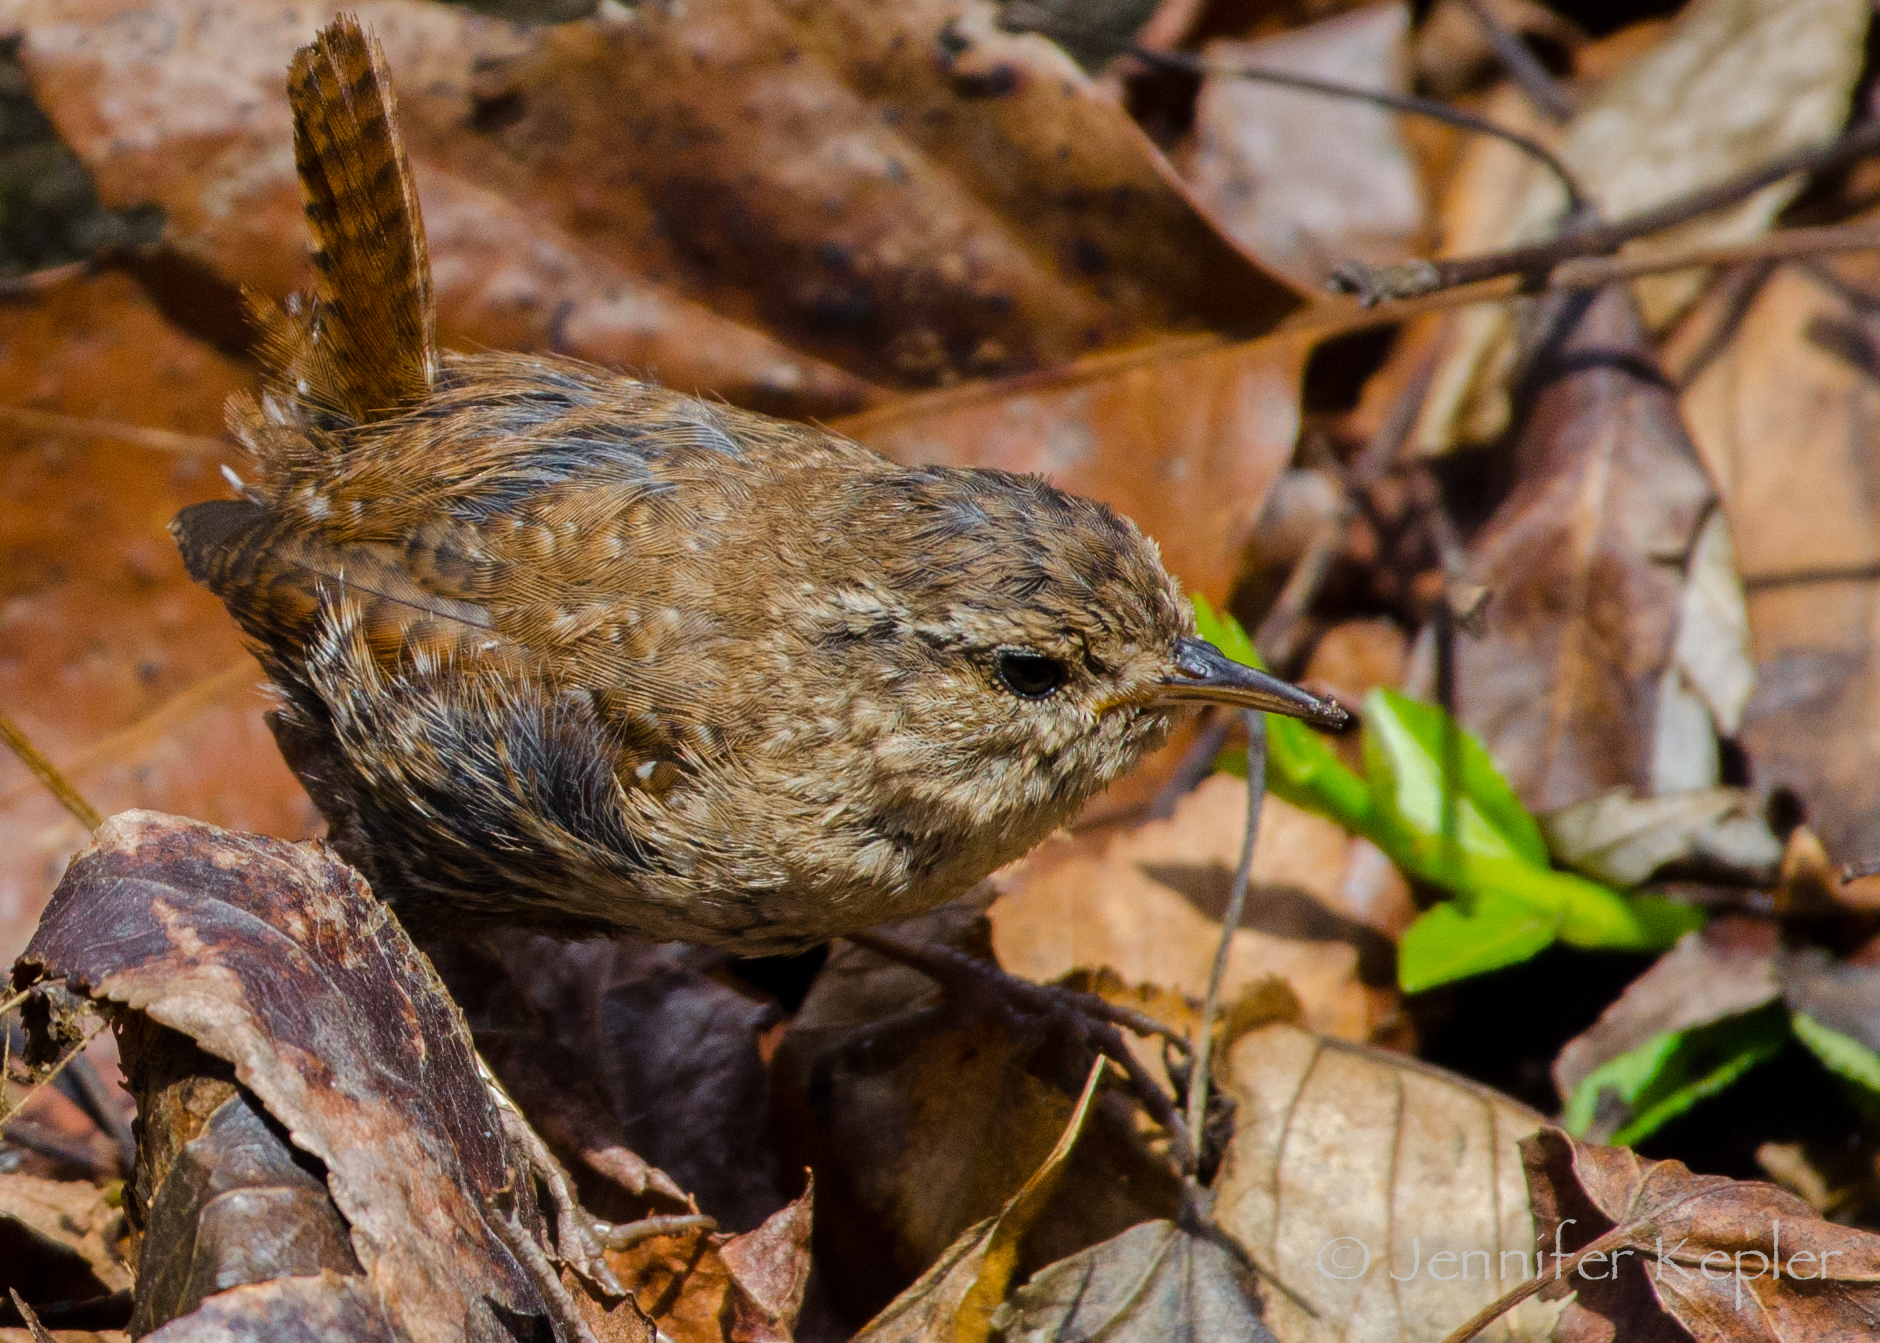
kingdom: Animalia
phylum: Chordata
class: Aves
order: Passeriformes
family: Troglodytidae
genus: Troglodytes
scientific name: Troglodytes hiemalis
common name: Winter wren
